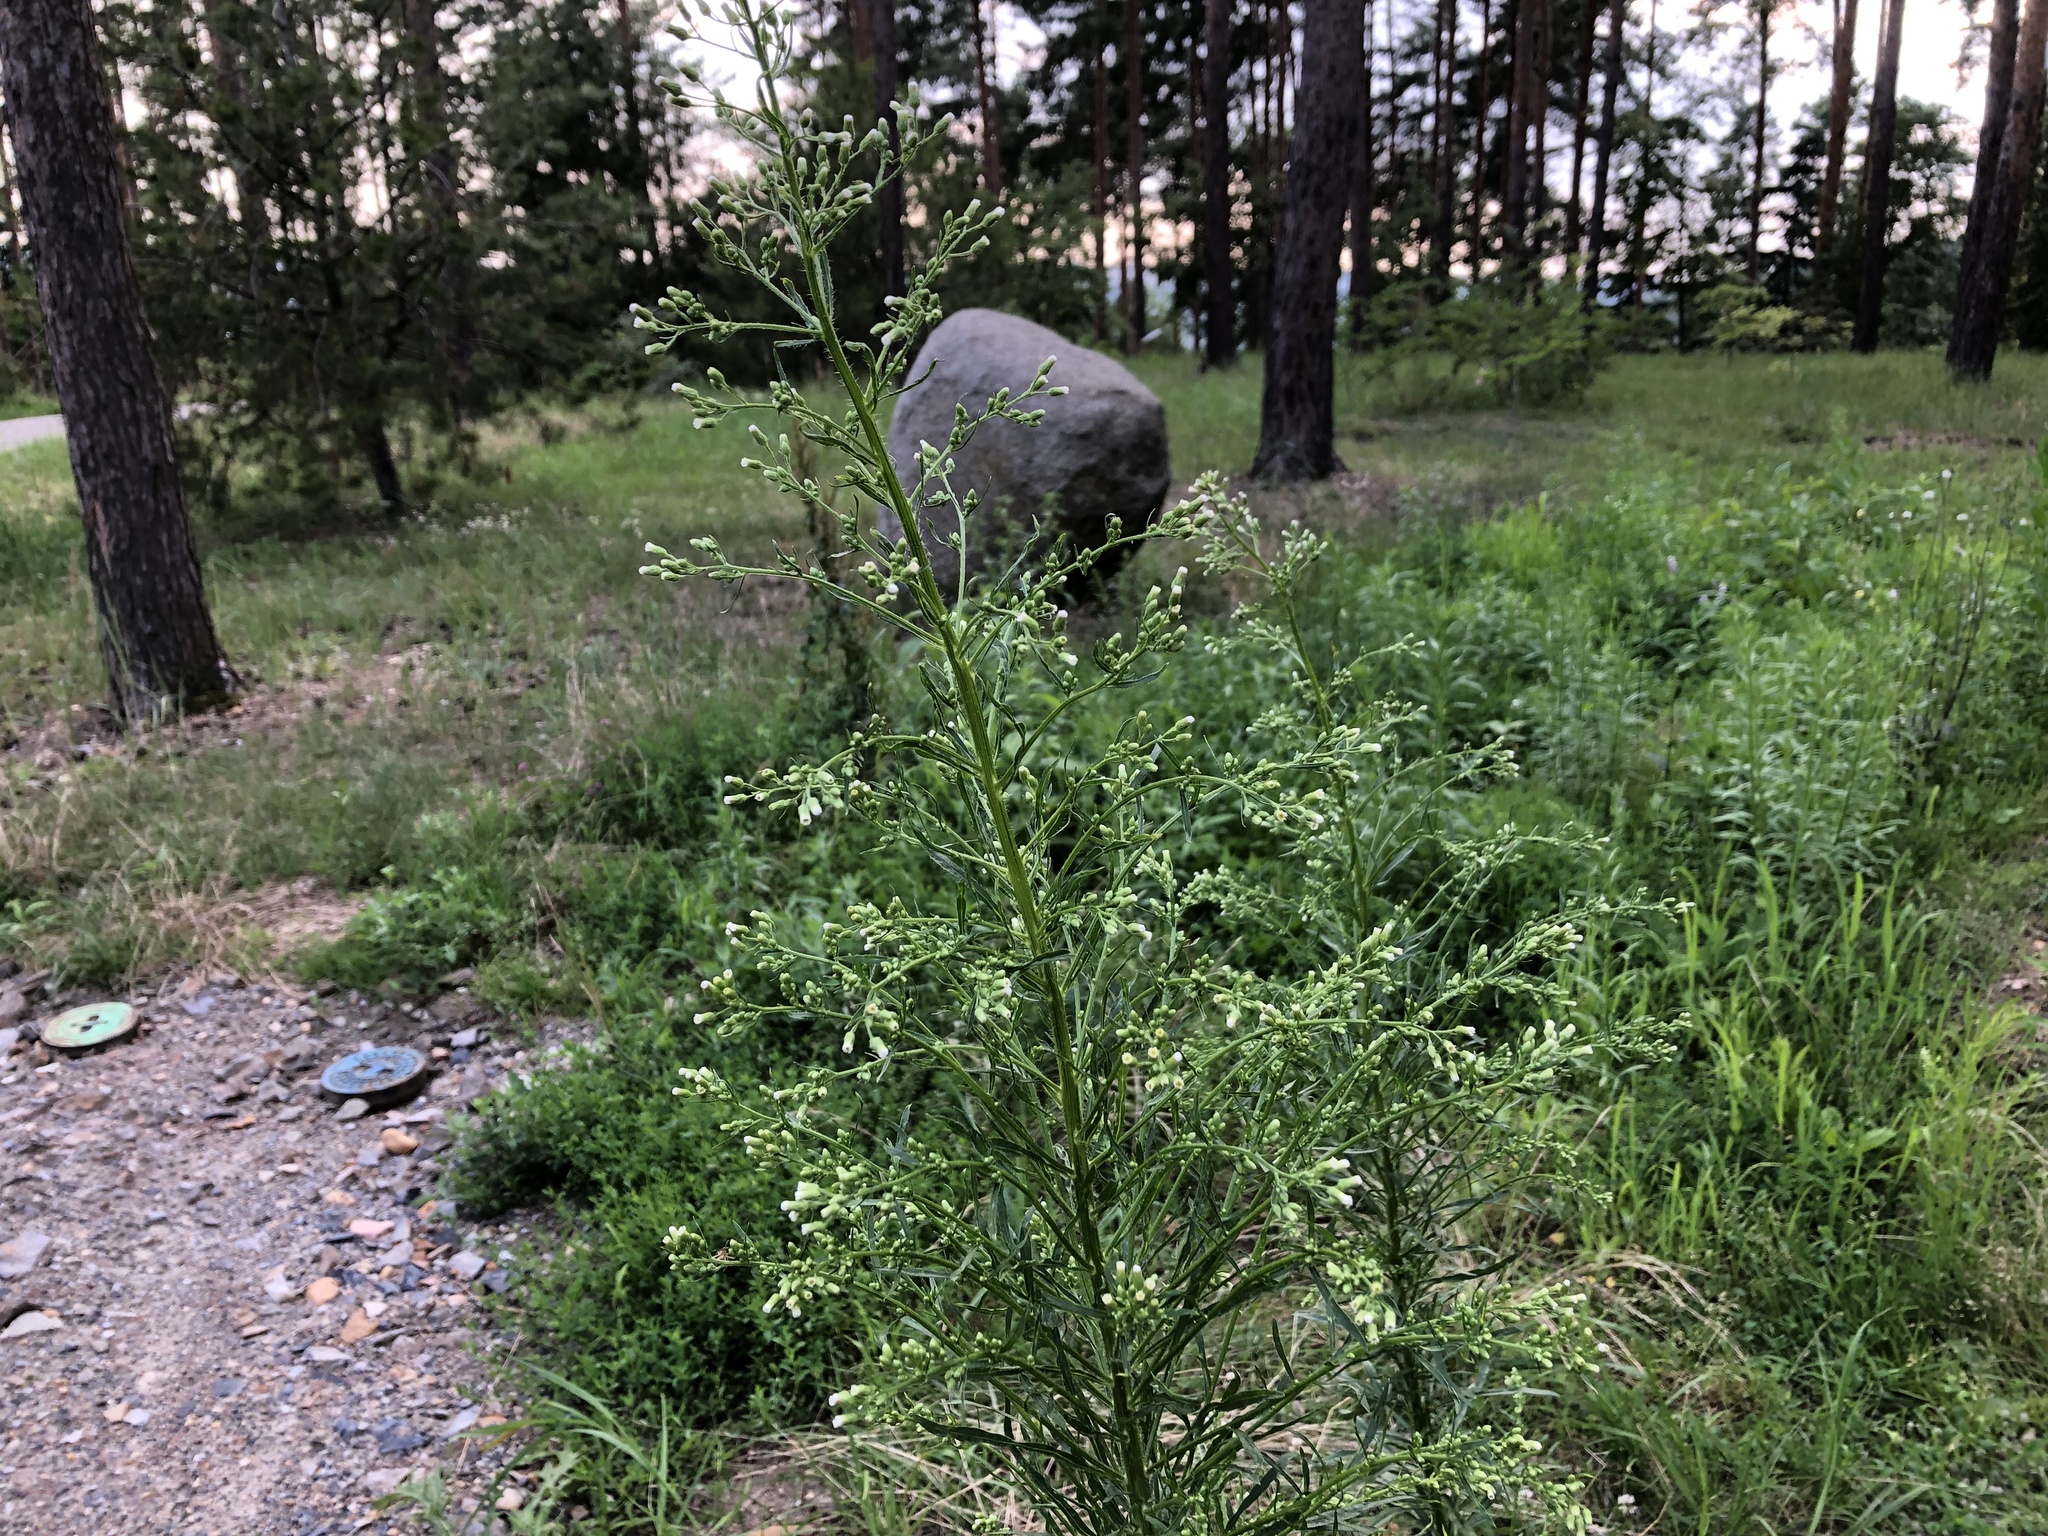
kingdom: Plantae
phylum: Tracheophyta
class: Magnoliopsida
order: Asterales
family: Asteraceae
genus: Erigeron
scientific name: Erigeron canadensis
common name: Canadian fleabane
